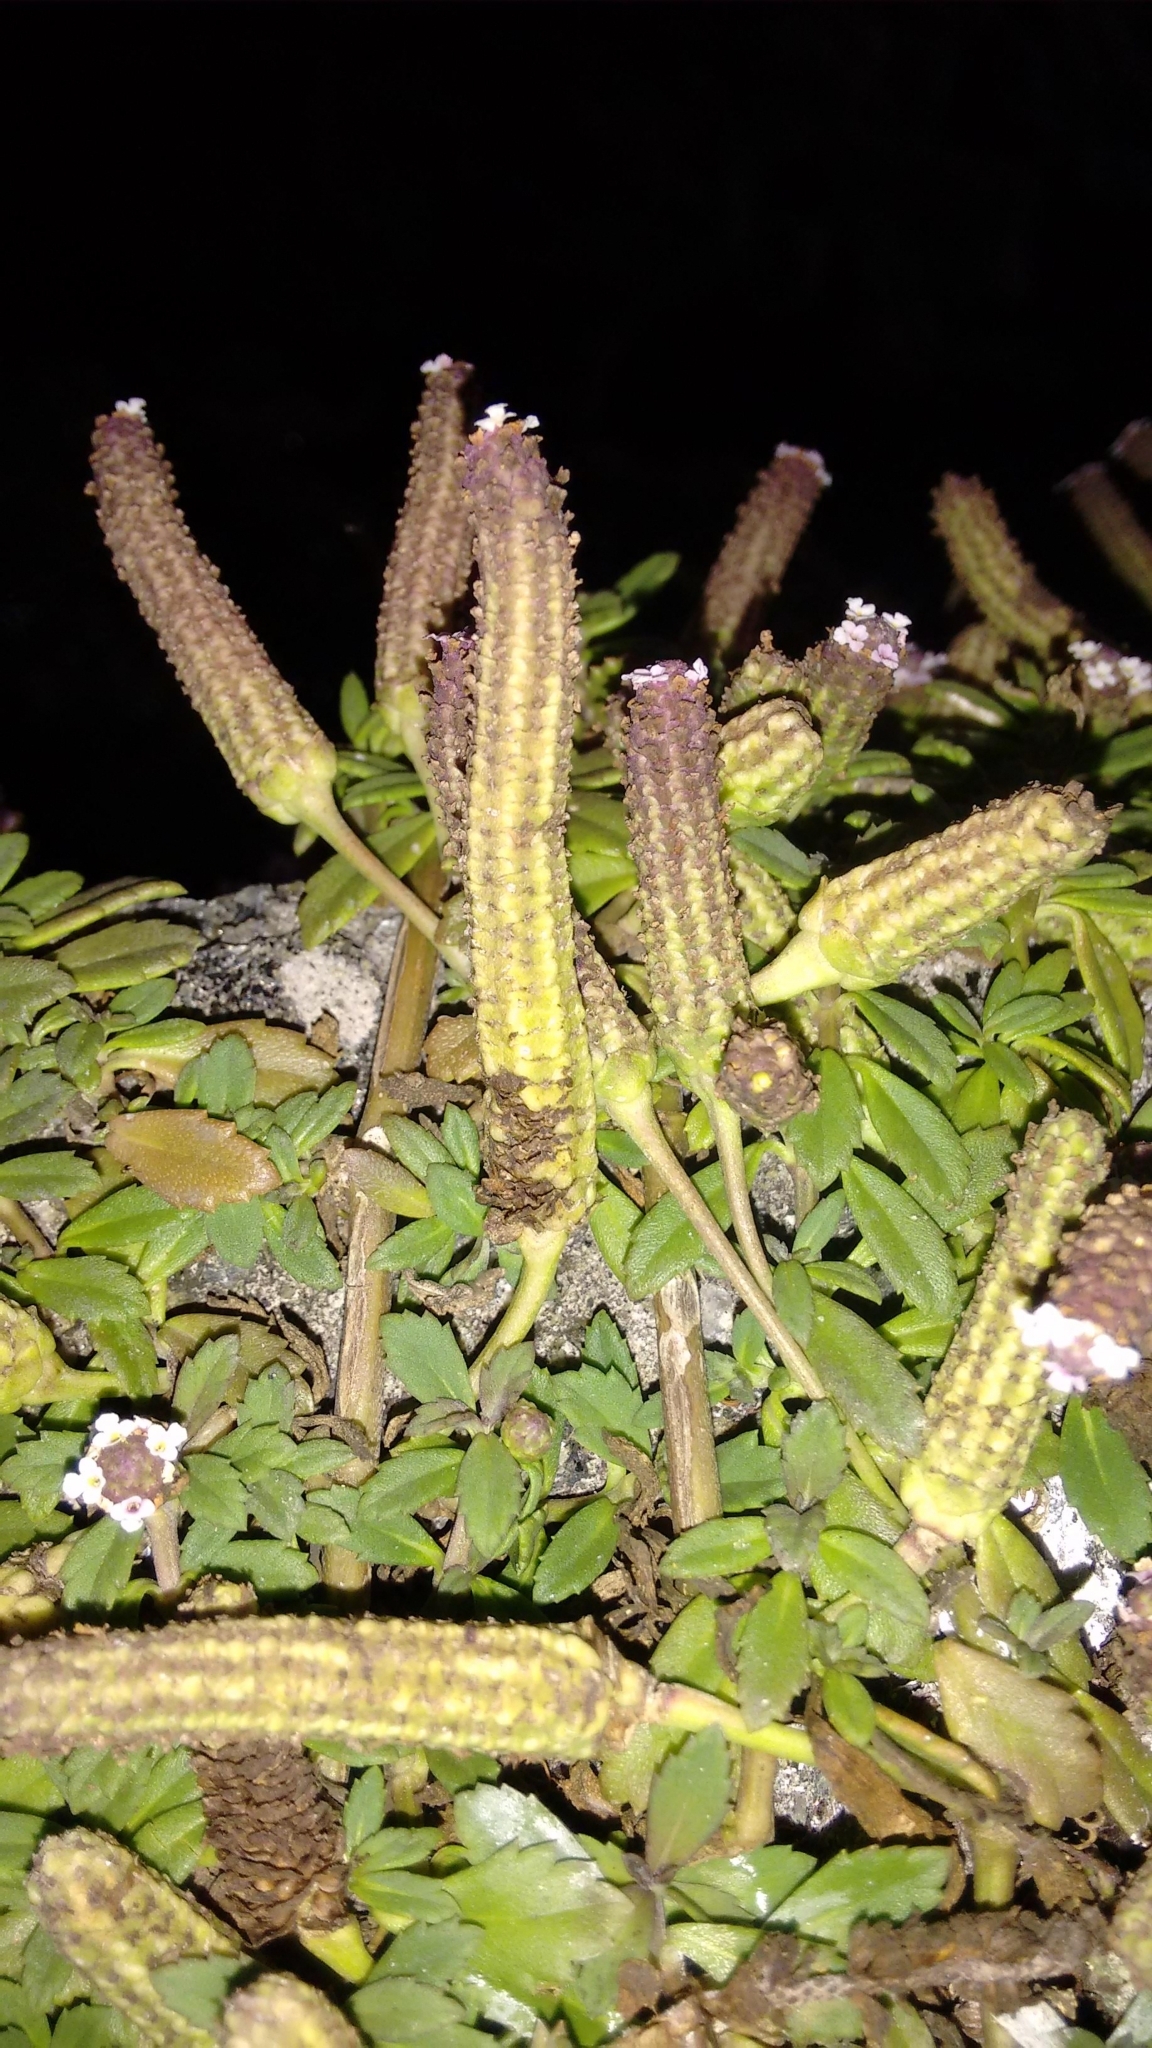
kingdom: Plantae
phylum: Tracheophyta
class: Magnoliopsida
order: Lamiales
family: Verbenaceae
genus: Phyla
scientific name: Phyla nodiflora
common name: Frogfruit
